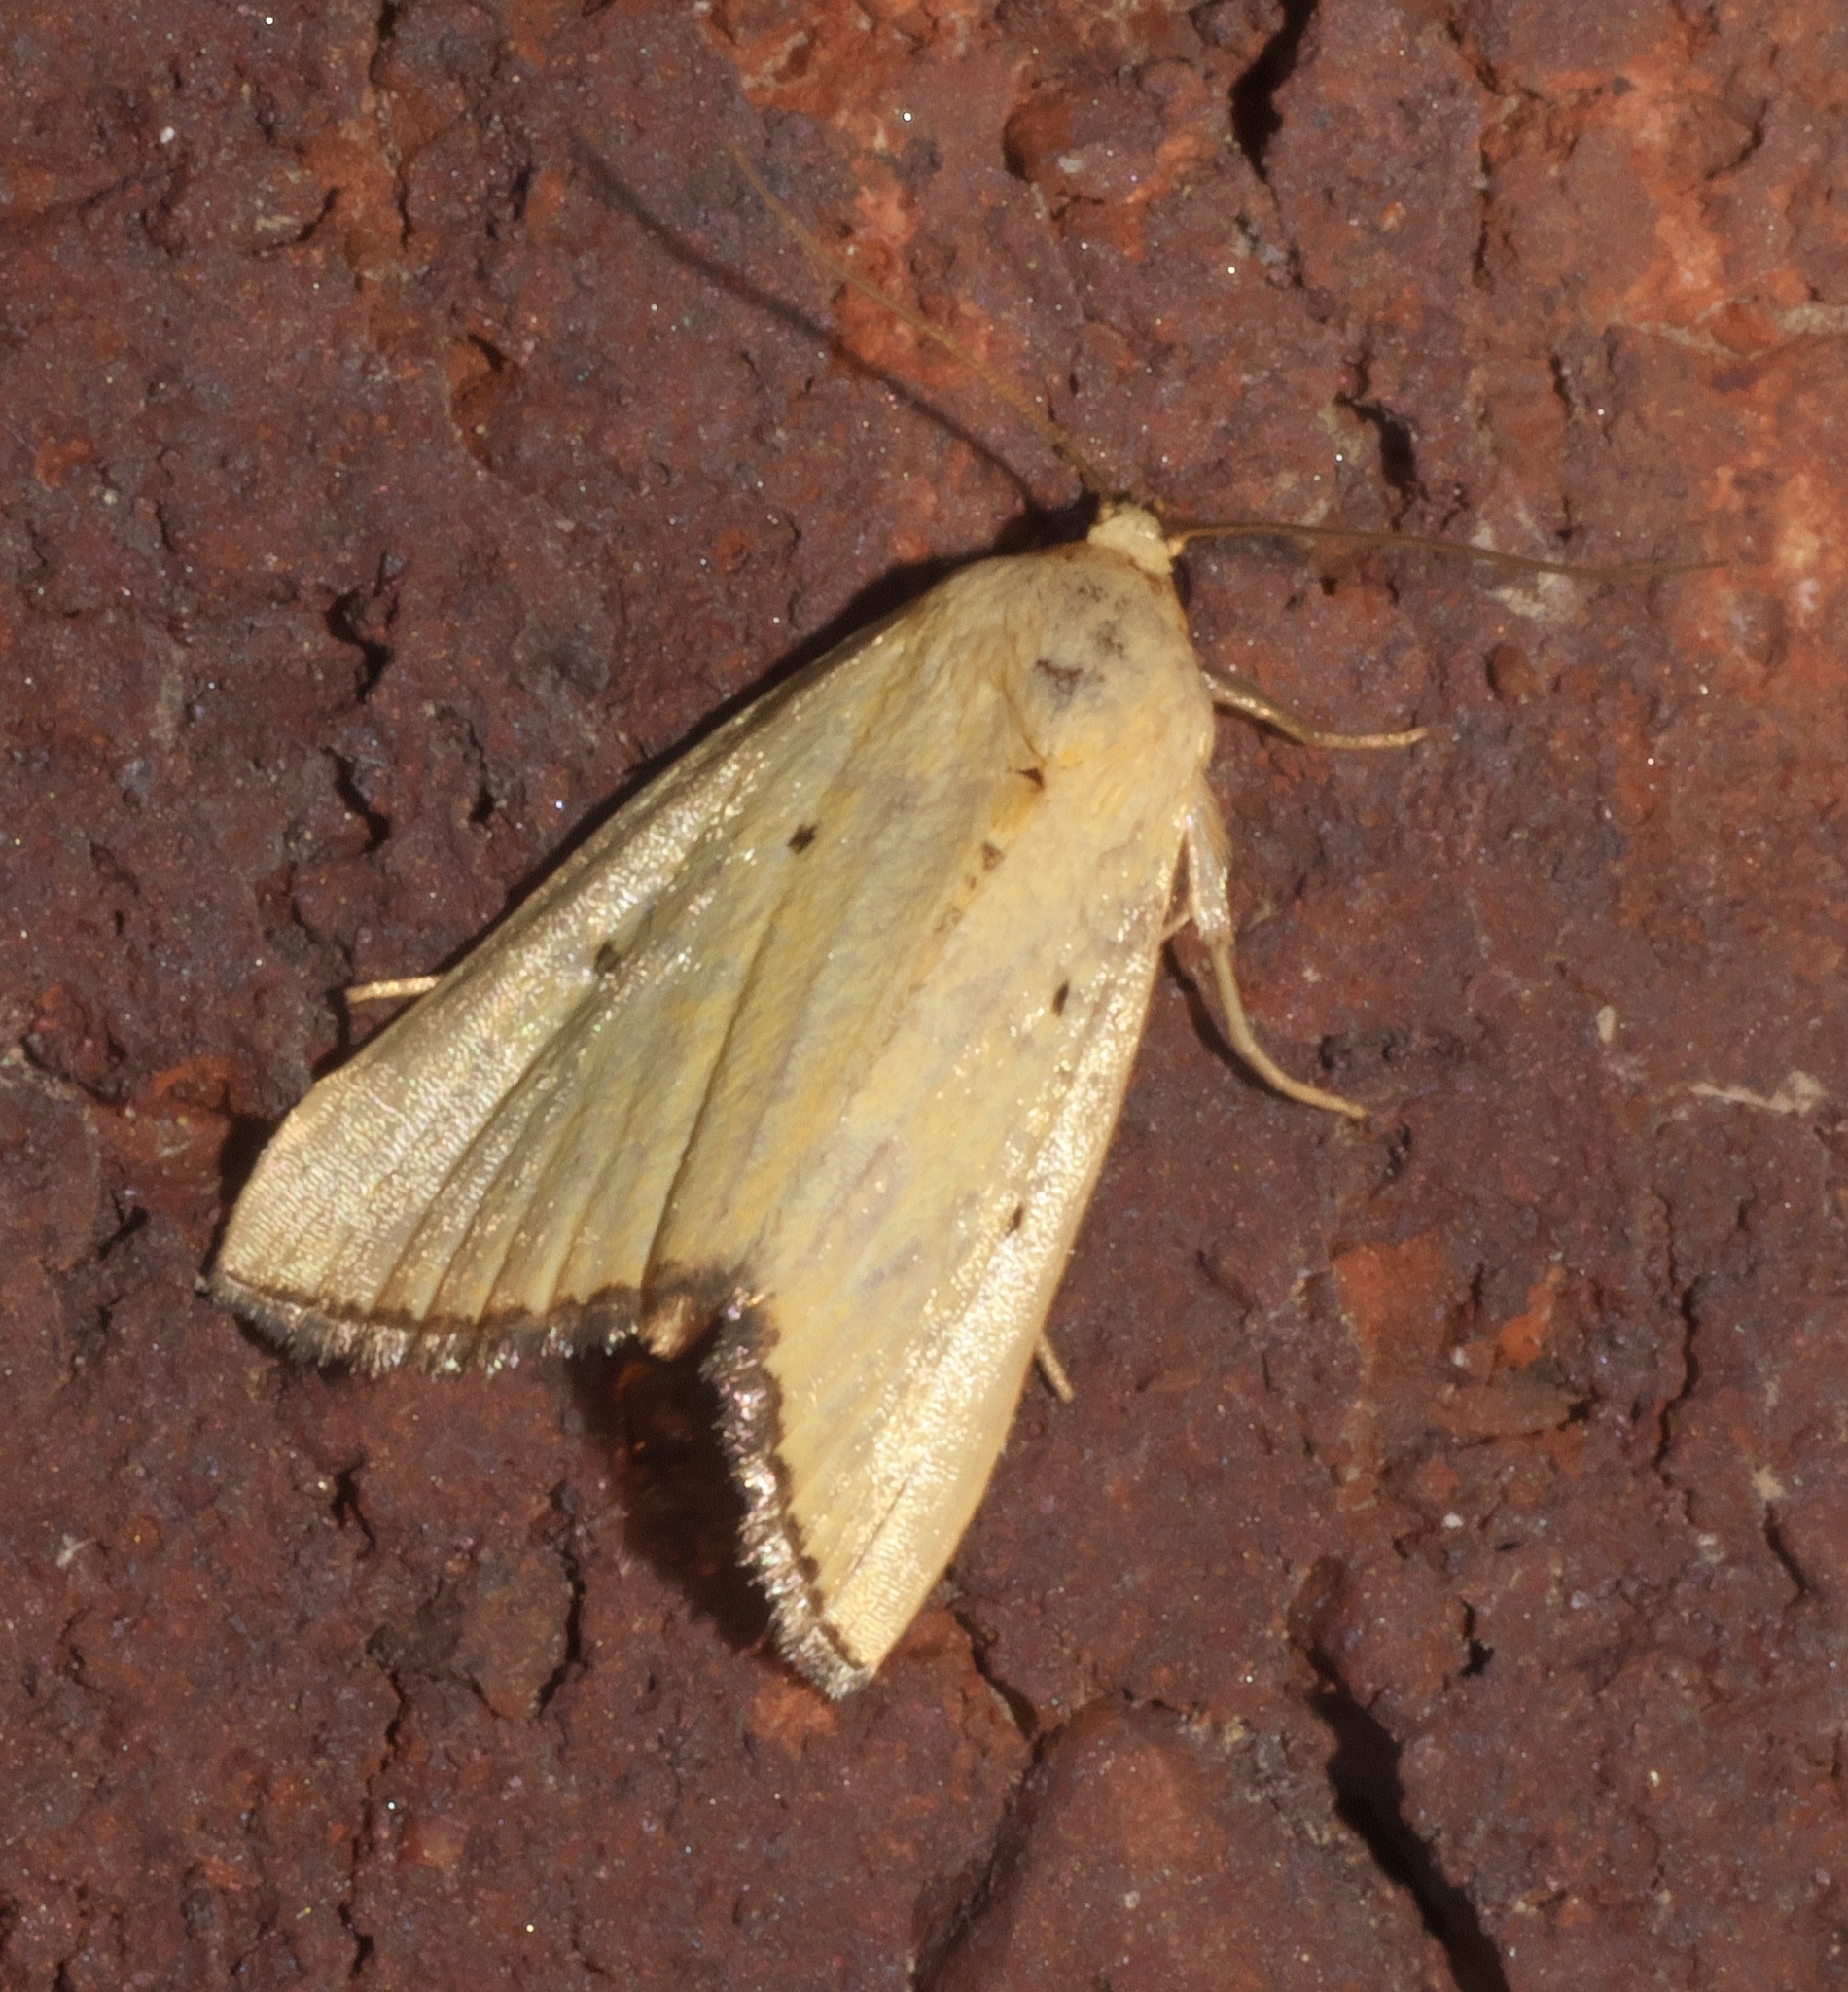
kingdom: Animalia
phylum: Arthropoda
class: Insecta
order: Lepidoptera
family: Noctuidae
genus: Marimatha
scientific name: Marimatha nigrofimbria
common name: Black-bordered lemon moth
